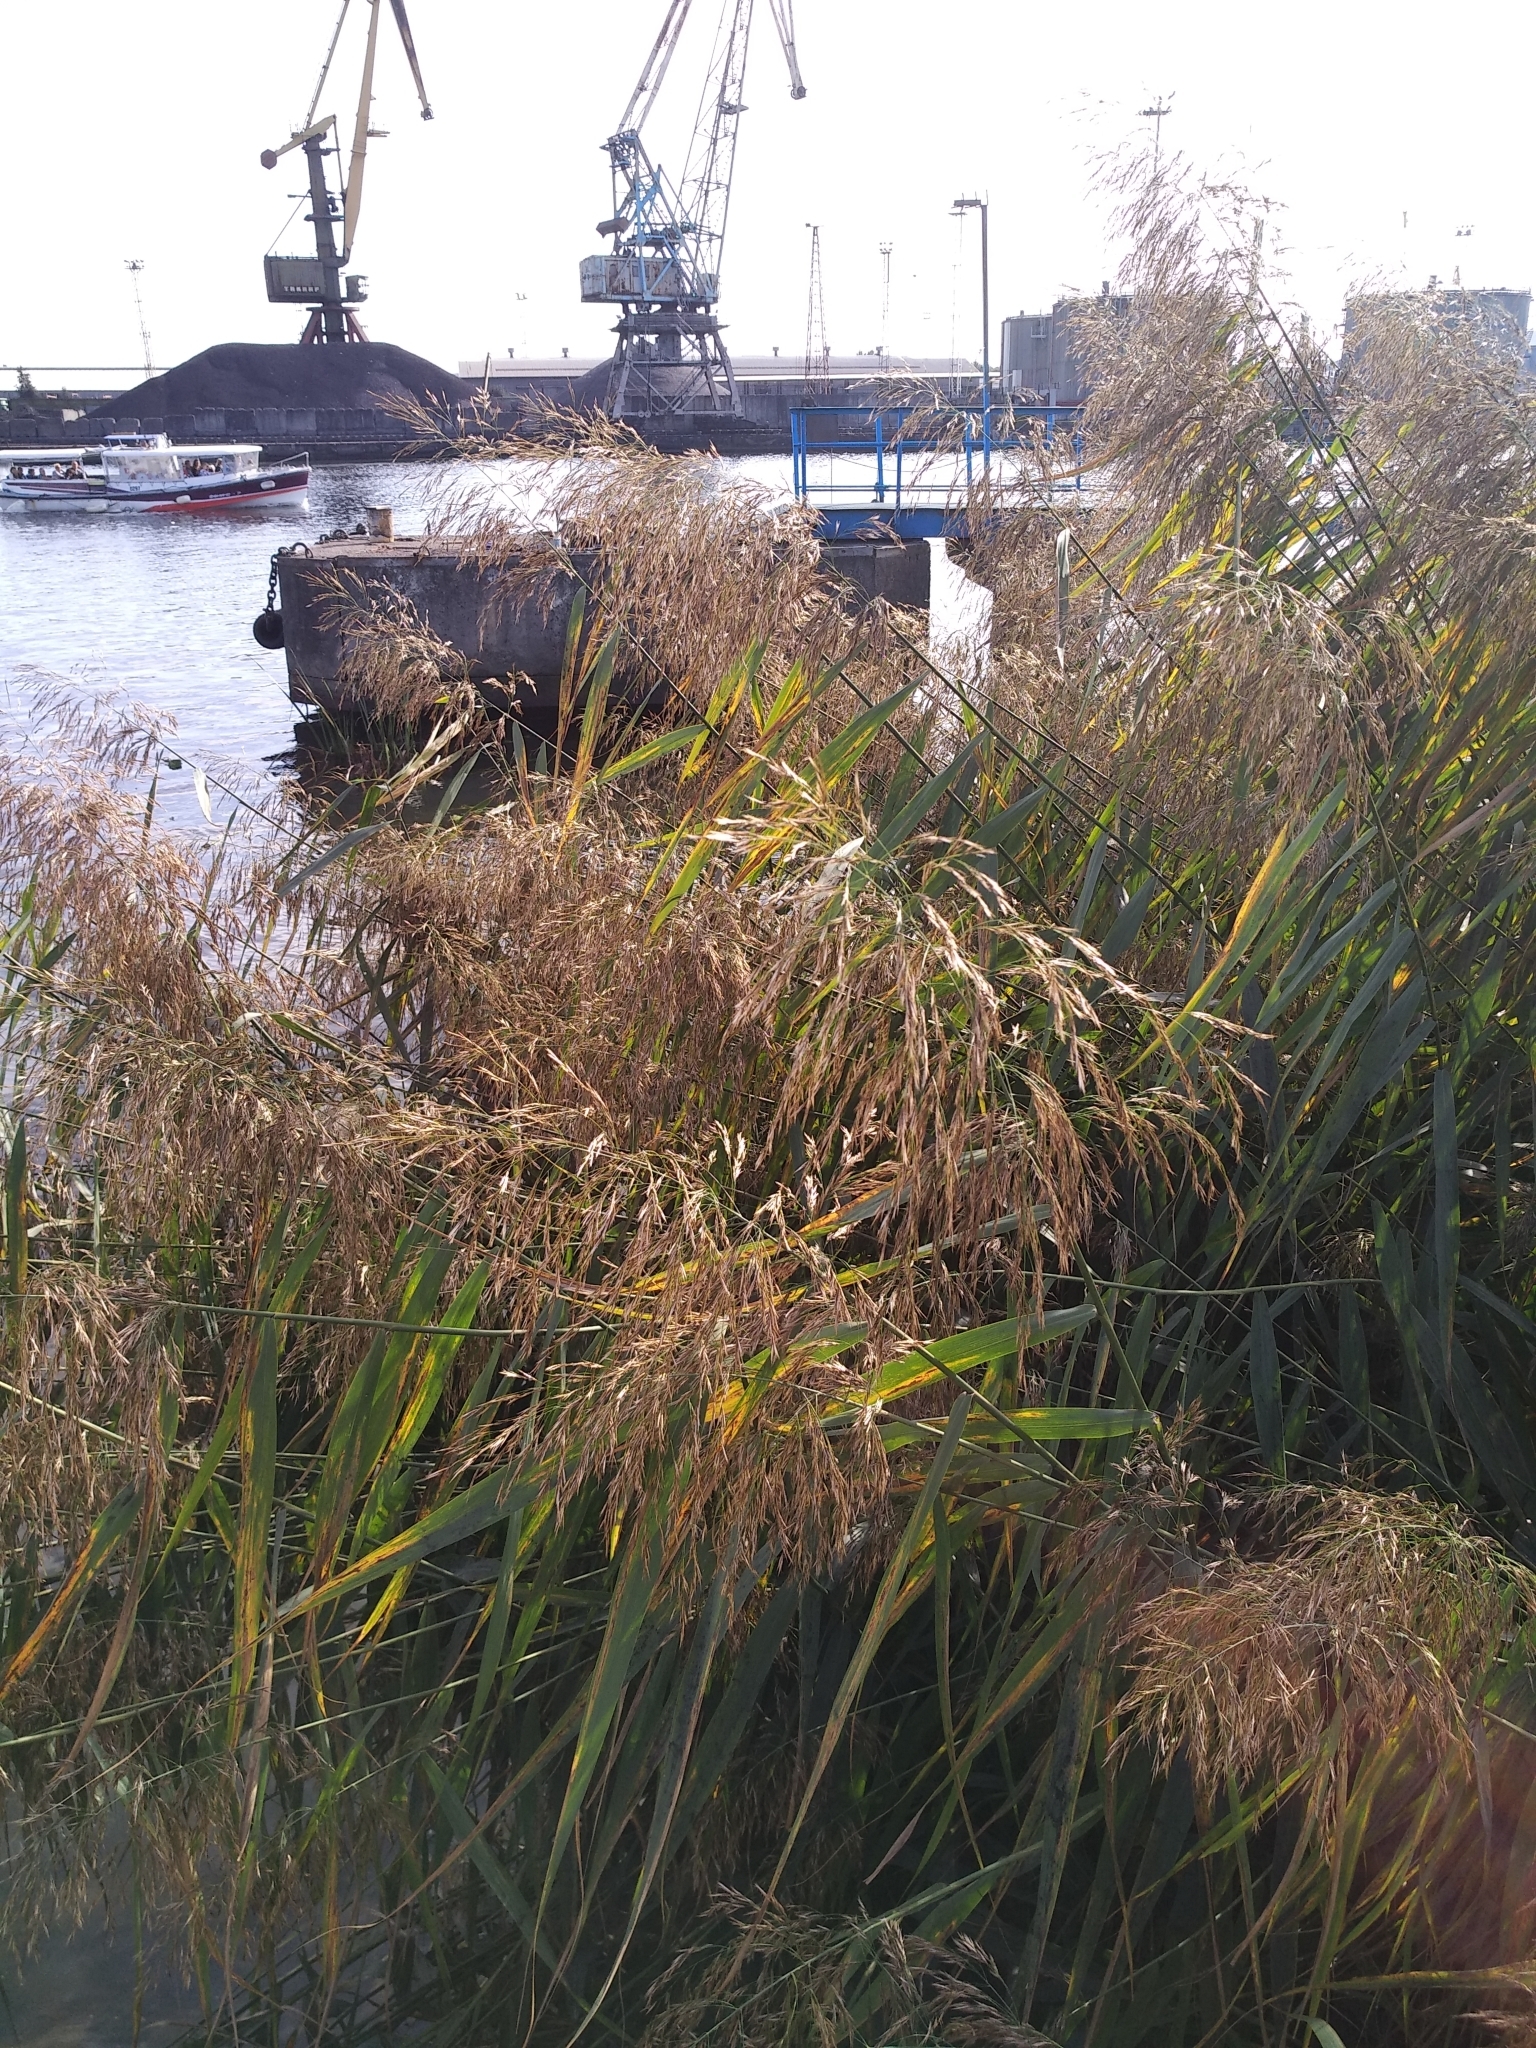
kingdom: Plantae
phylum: Tracheophyta
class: Liliopsida
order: Poales
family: Poaceae
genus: Phragmites
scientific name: Phragmites australis
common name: Common reed
